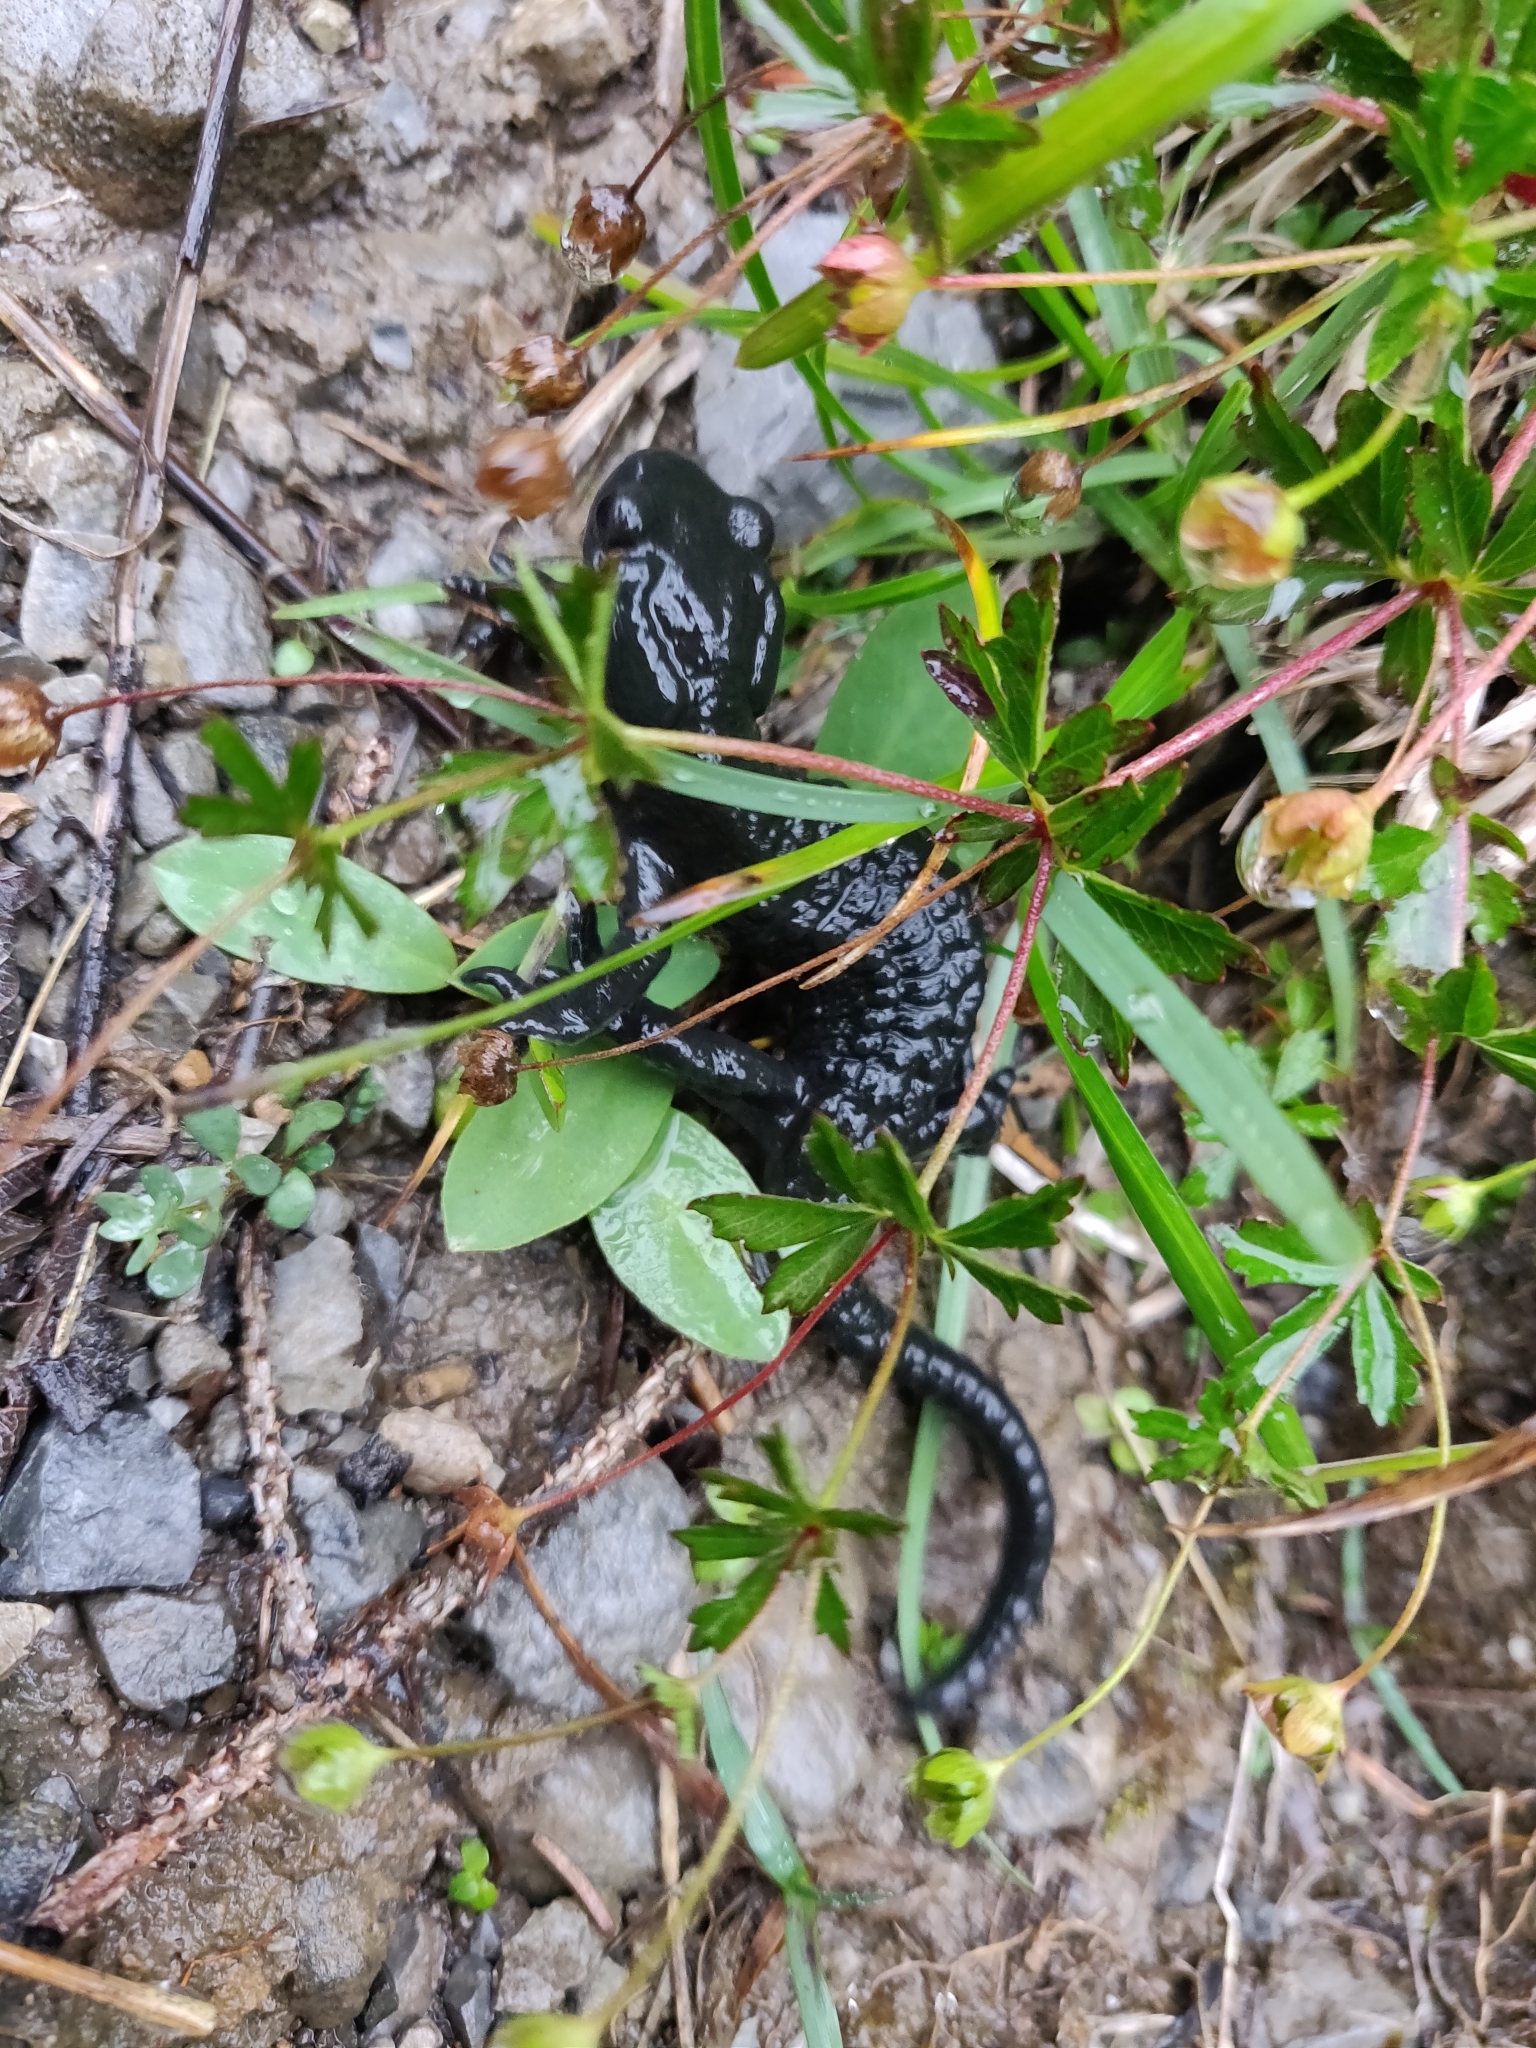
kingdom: Animalia
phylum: Chordata
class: Amphibia
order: Caudata
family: Salamandridae
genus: Salamandra
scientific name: Salamandra atra
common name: Alpine salamander
